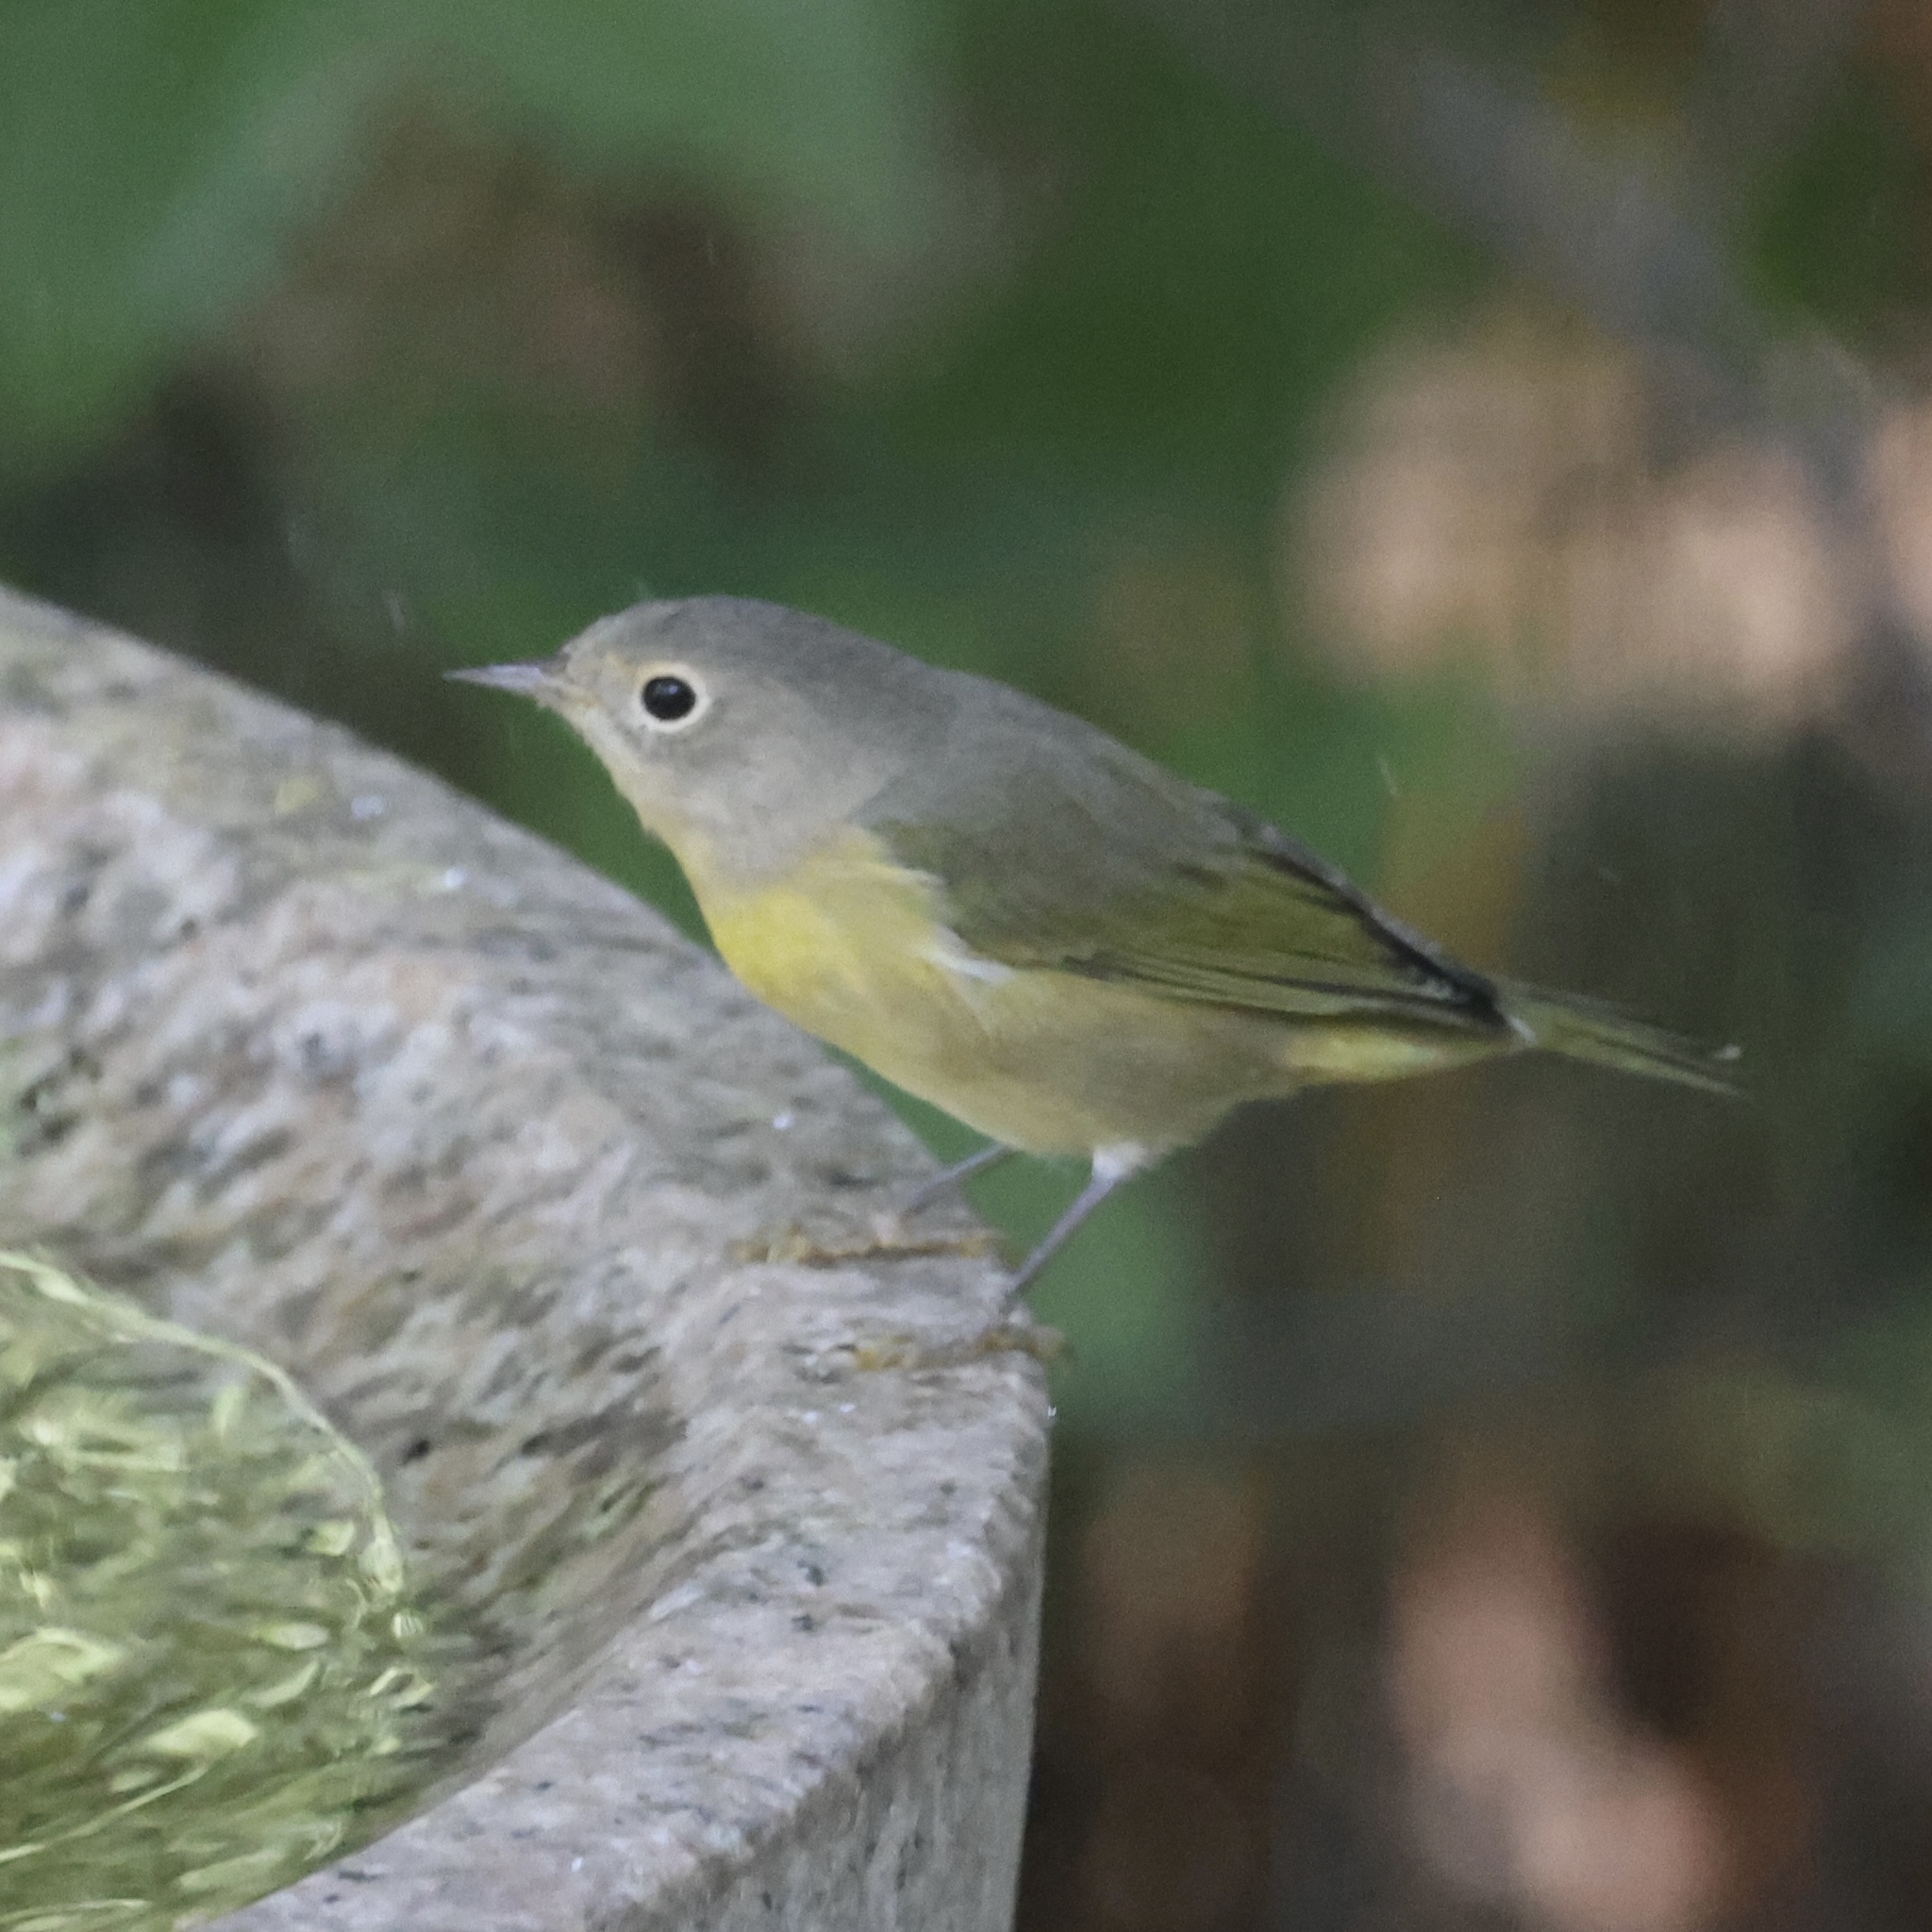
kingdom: Animalia
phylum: Chordata
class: Aves
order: Passeriformes
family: Parulidae
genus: Leiothlypis
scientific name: Leiothlypis ruficapilla
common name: Nashville warbler
